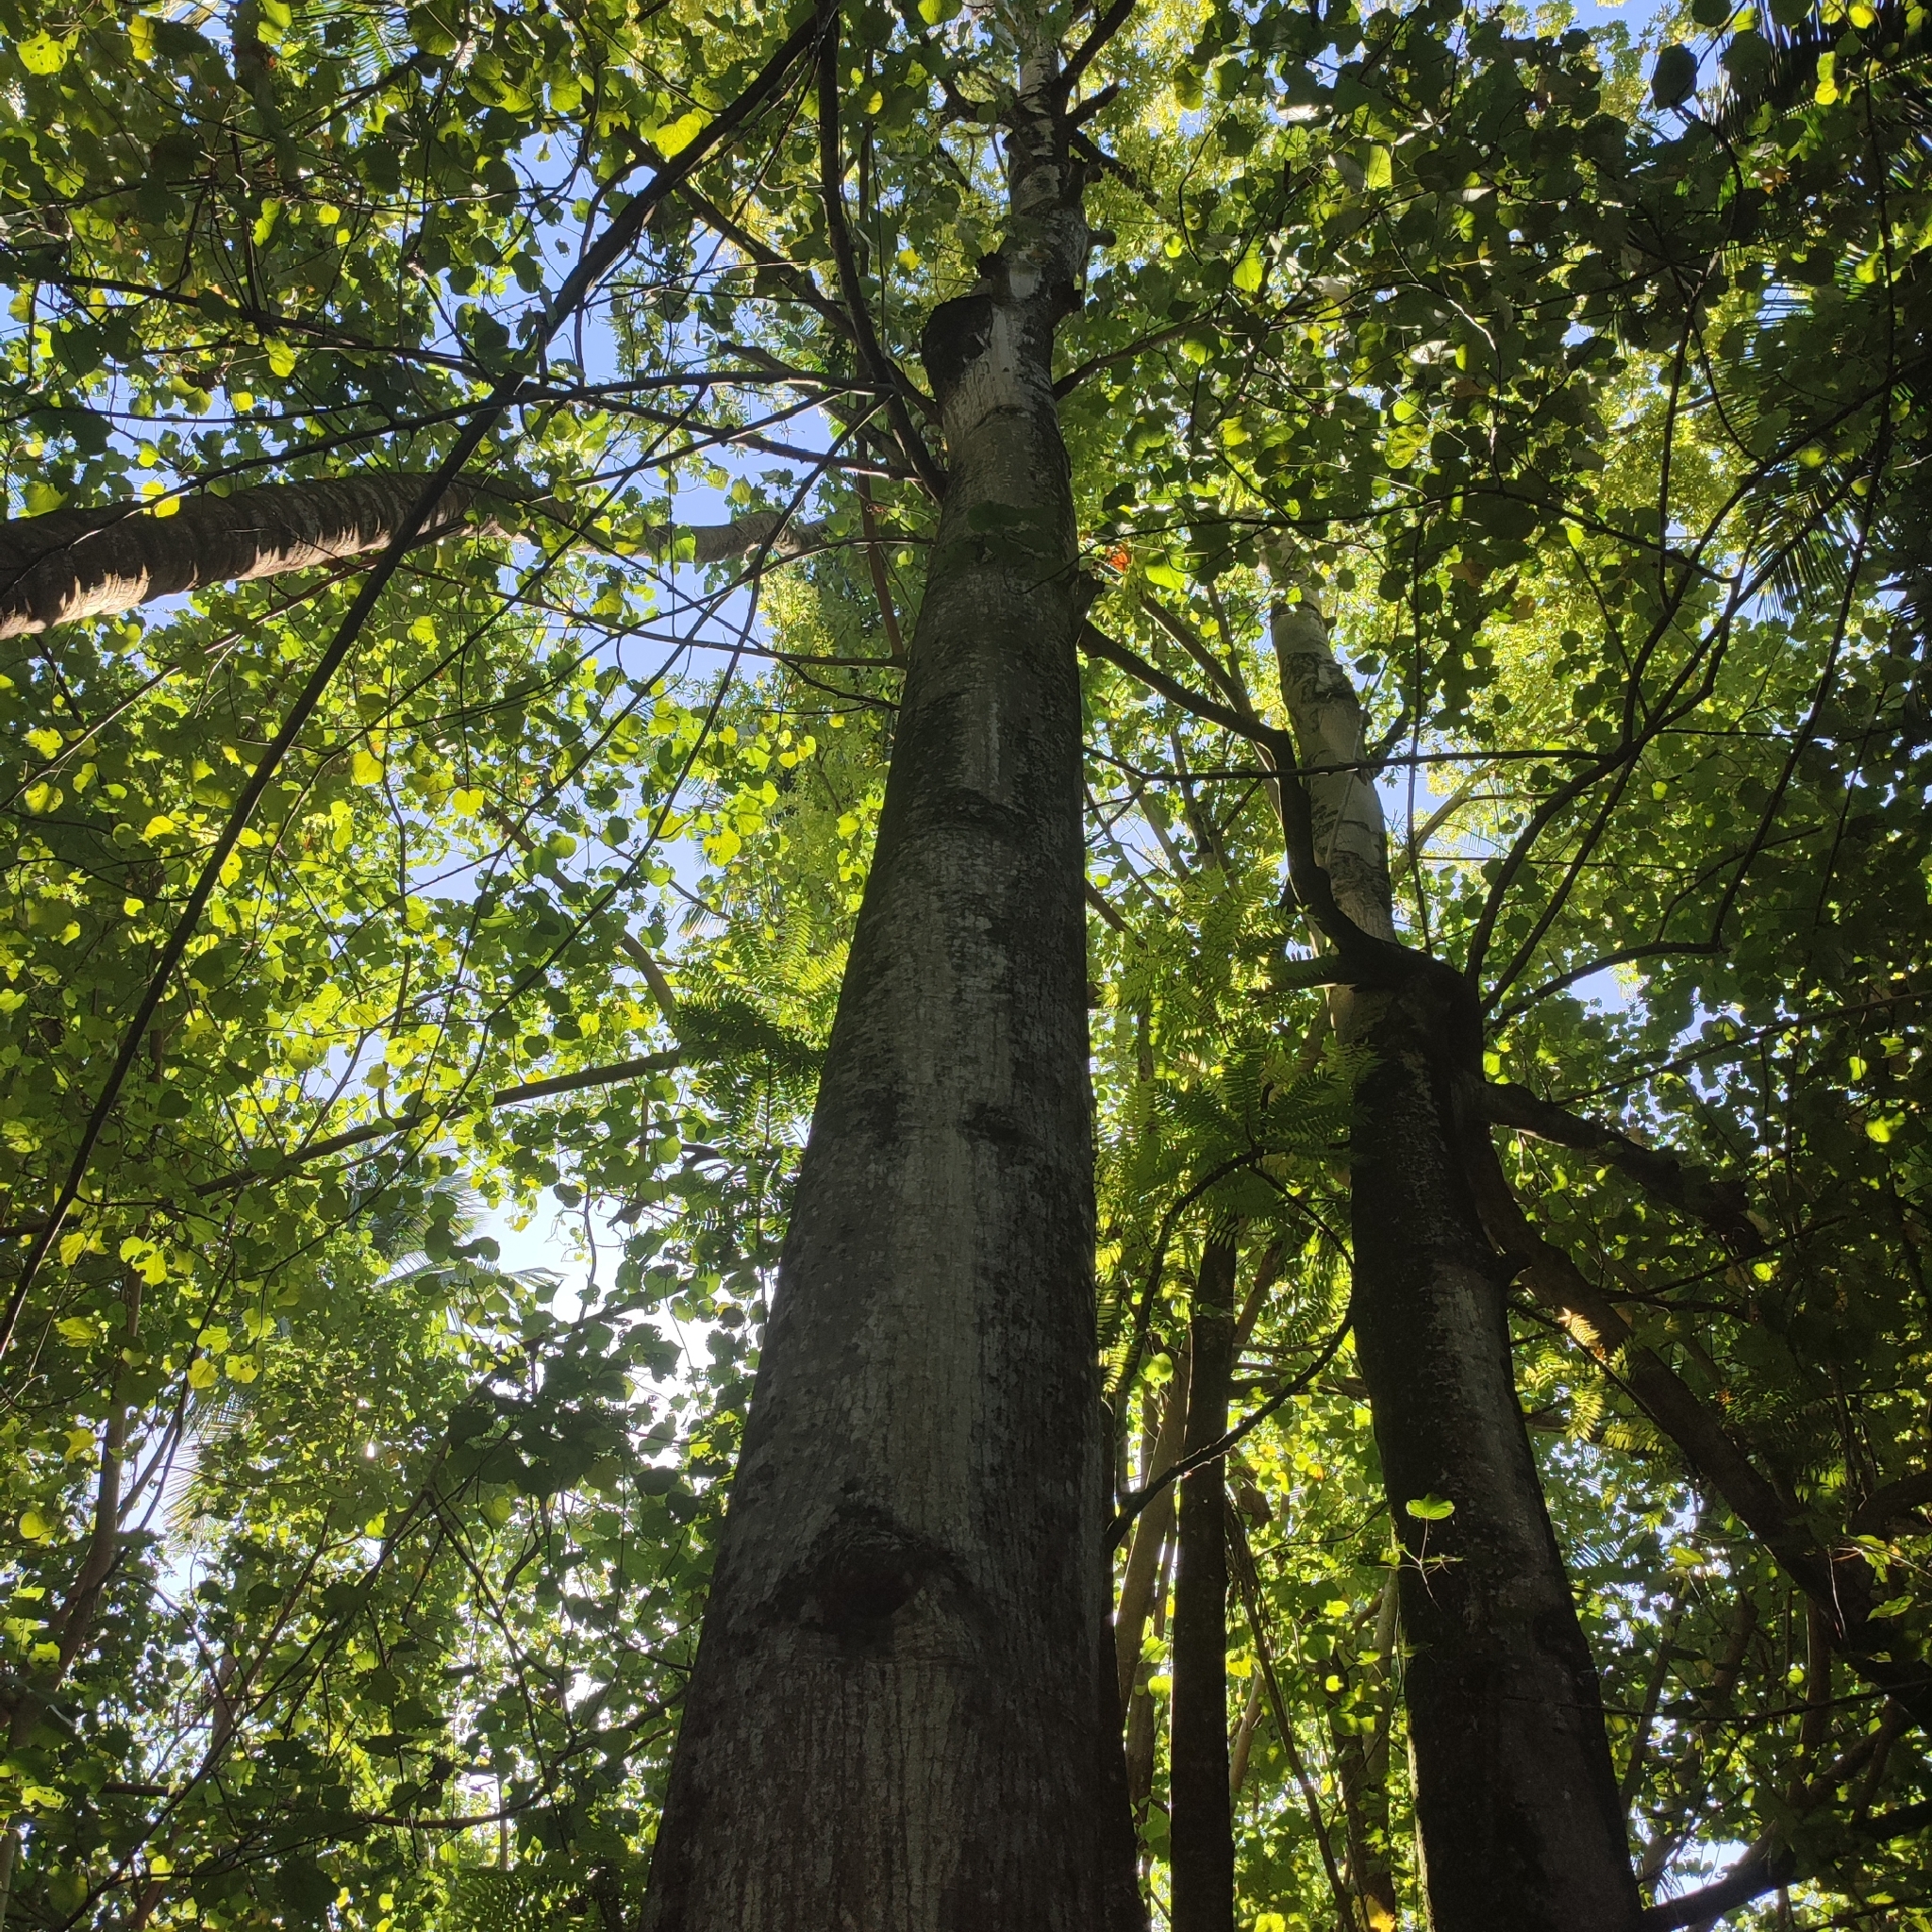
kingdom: Plantae
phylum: Tracheophyta
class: Magnoliopsida
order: Malvales
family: Malvaceae
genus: Ceiba
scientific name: Ceiba pentandra
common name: Kapok
